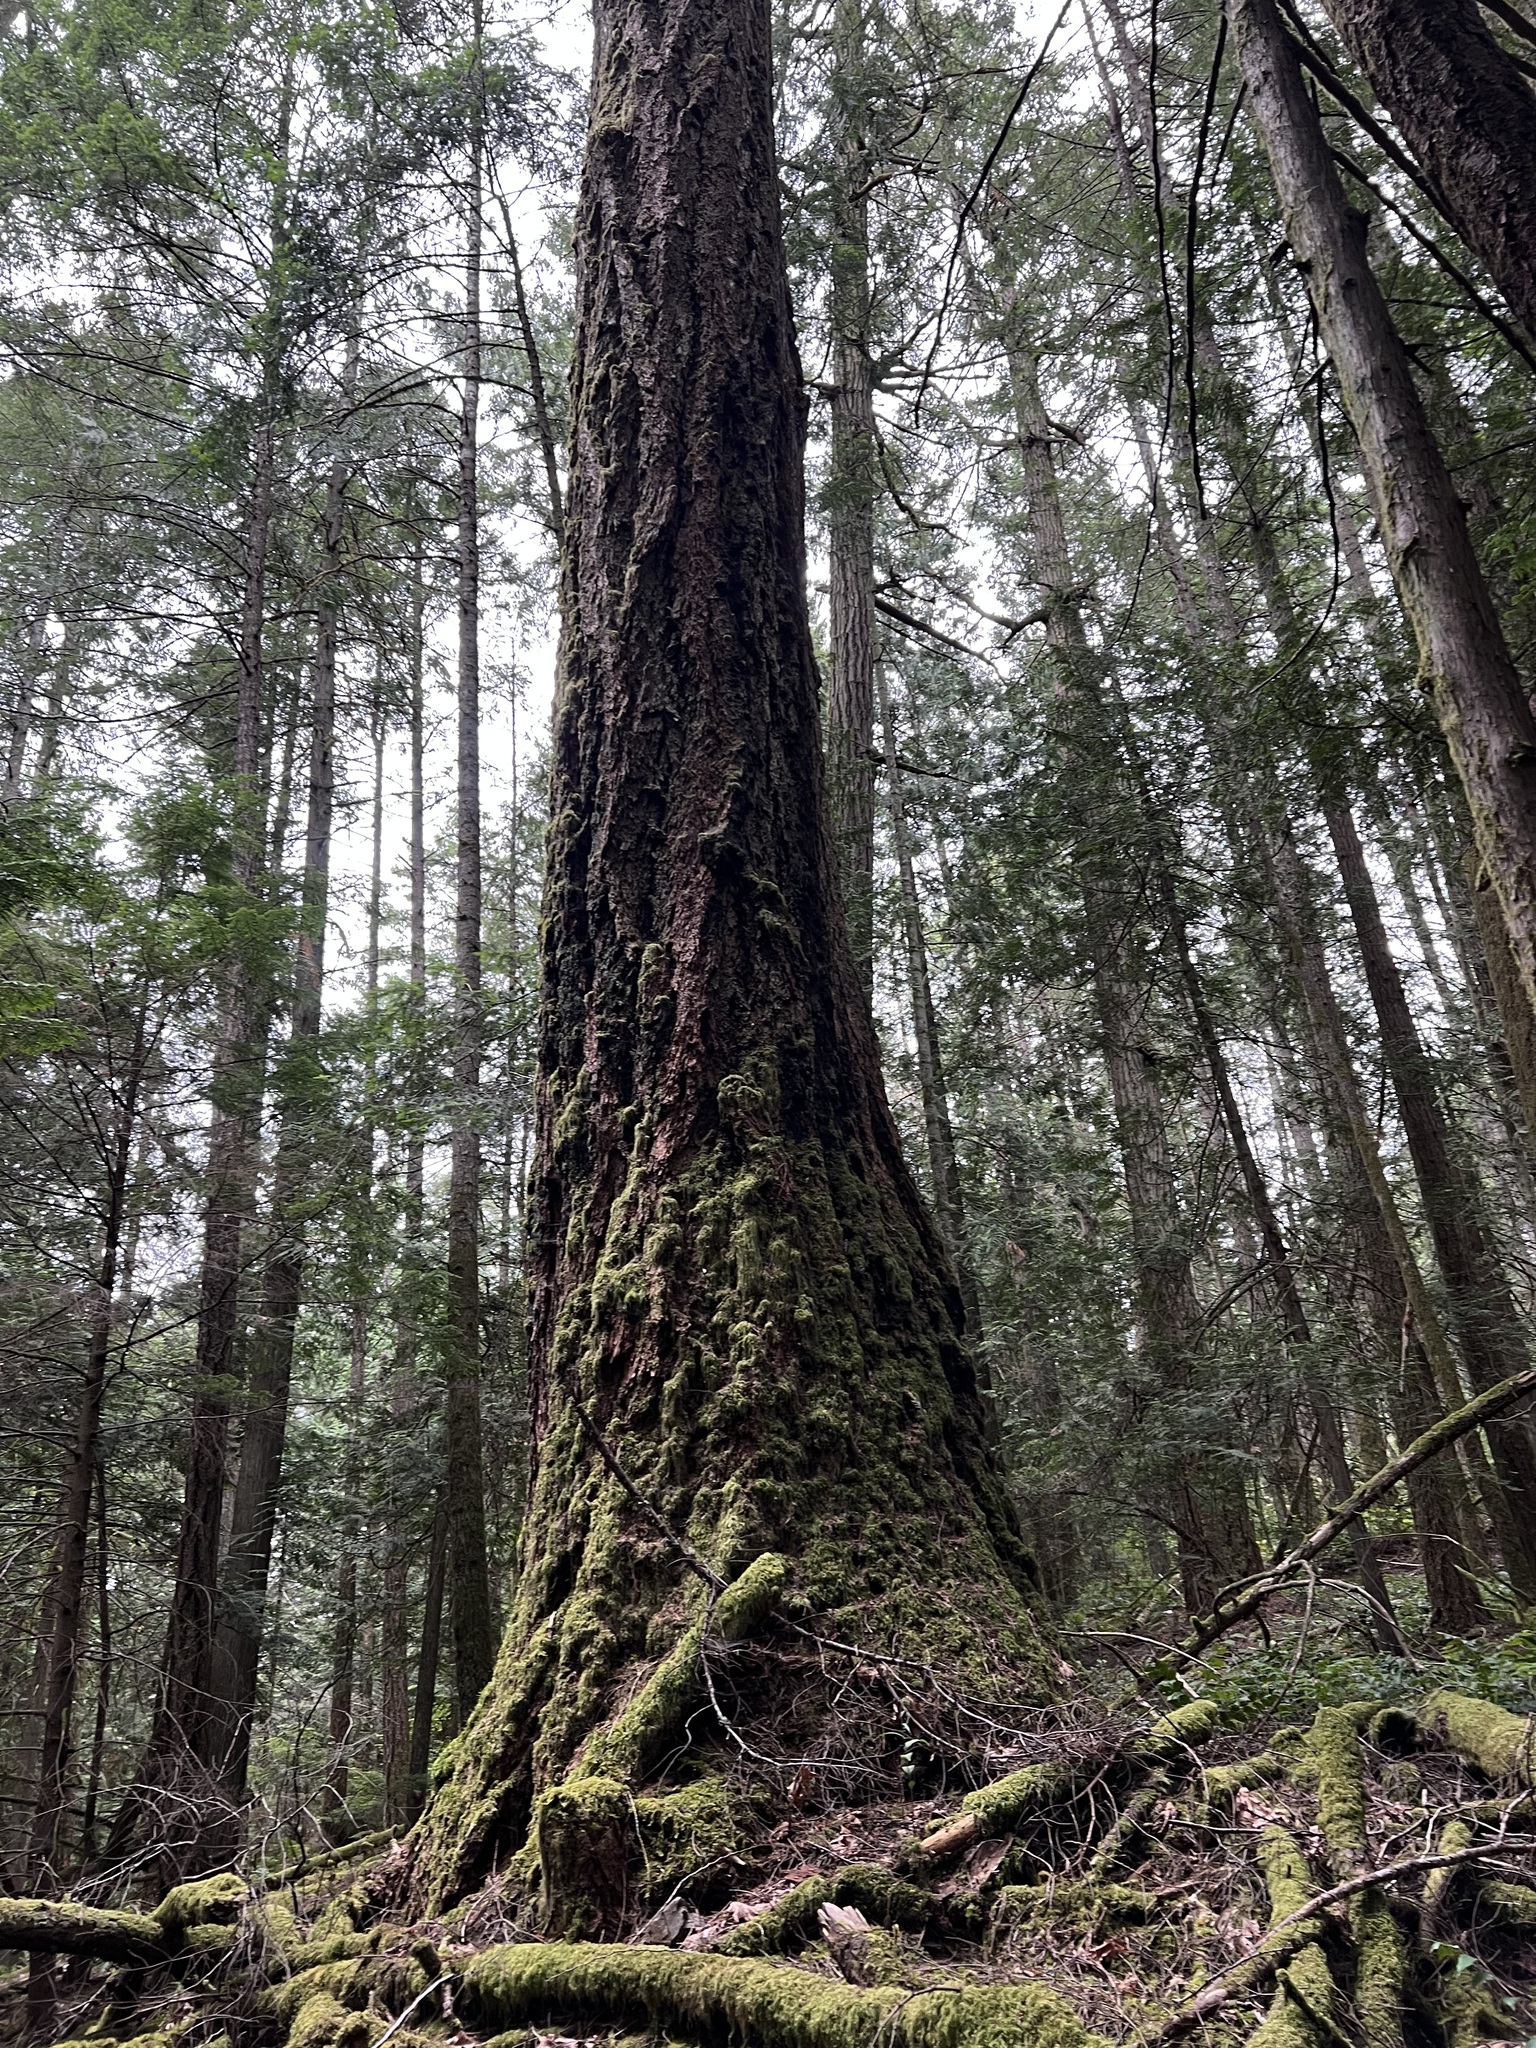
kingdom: Plantae
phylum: Tracheophyta
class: Pinopsida
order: Pinales
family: Pinaceae
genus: Pseudotsuga
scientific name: Pseudotsuga menziesii
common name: Douglas fir
